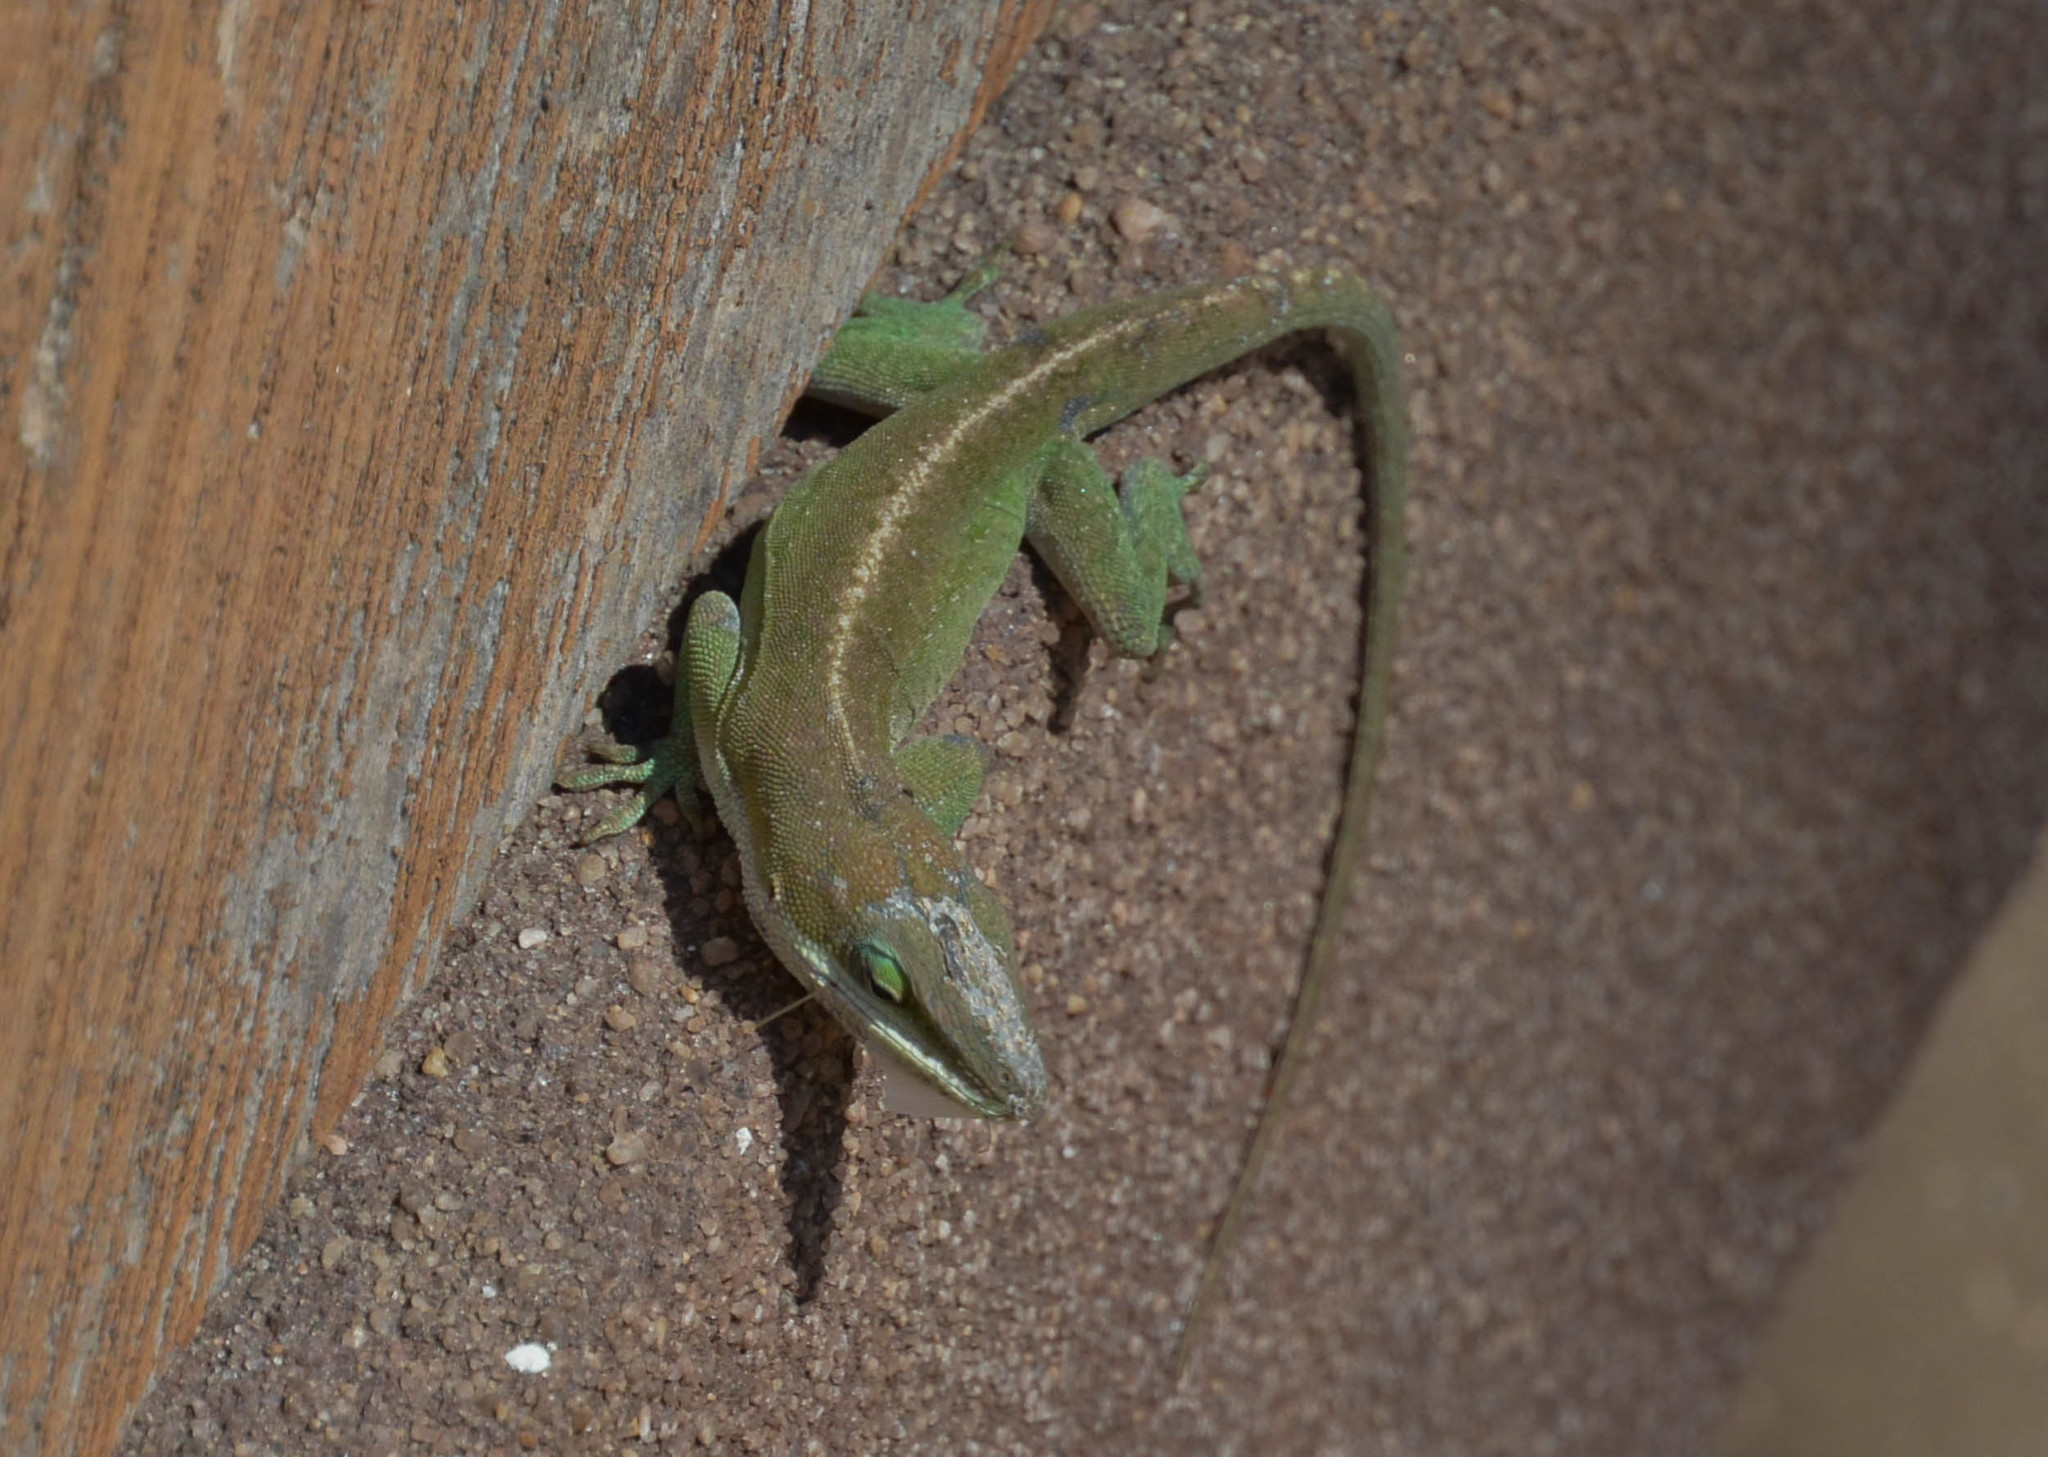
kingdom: Animalia
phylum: Chordata
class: Squamata
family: Dactyloidae
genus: Anolis
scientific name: Anolis carolinensis
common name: Green anole
